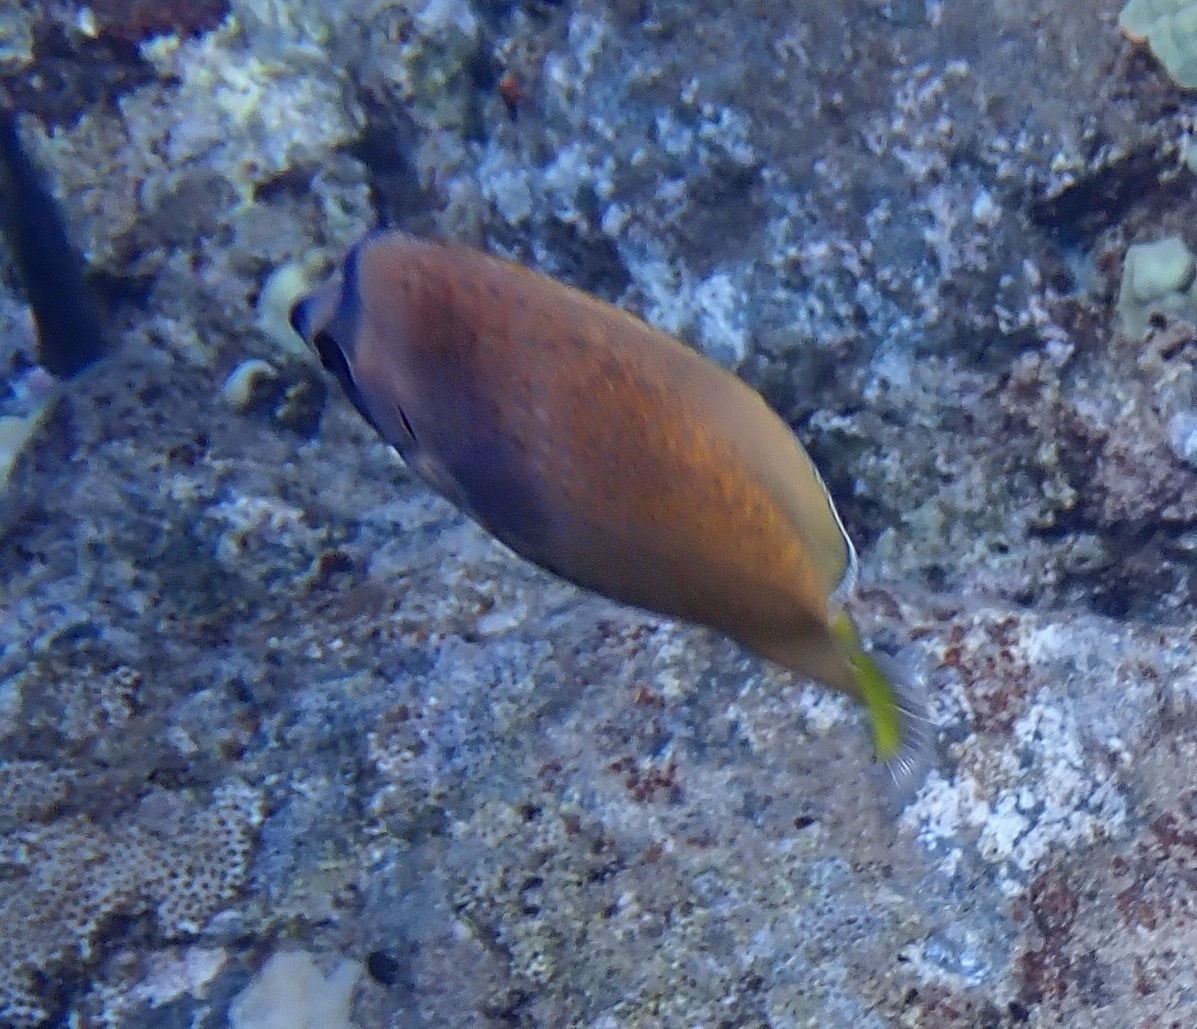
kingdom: Animalia
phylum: Chordata
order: Perciformes
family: Chaetodontidae
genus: Chaetodon
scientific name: Chaetodon kleinii
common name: Klein's butterflyfish
